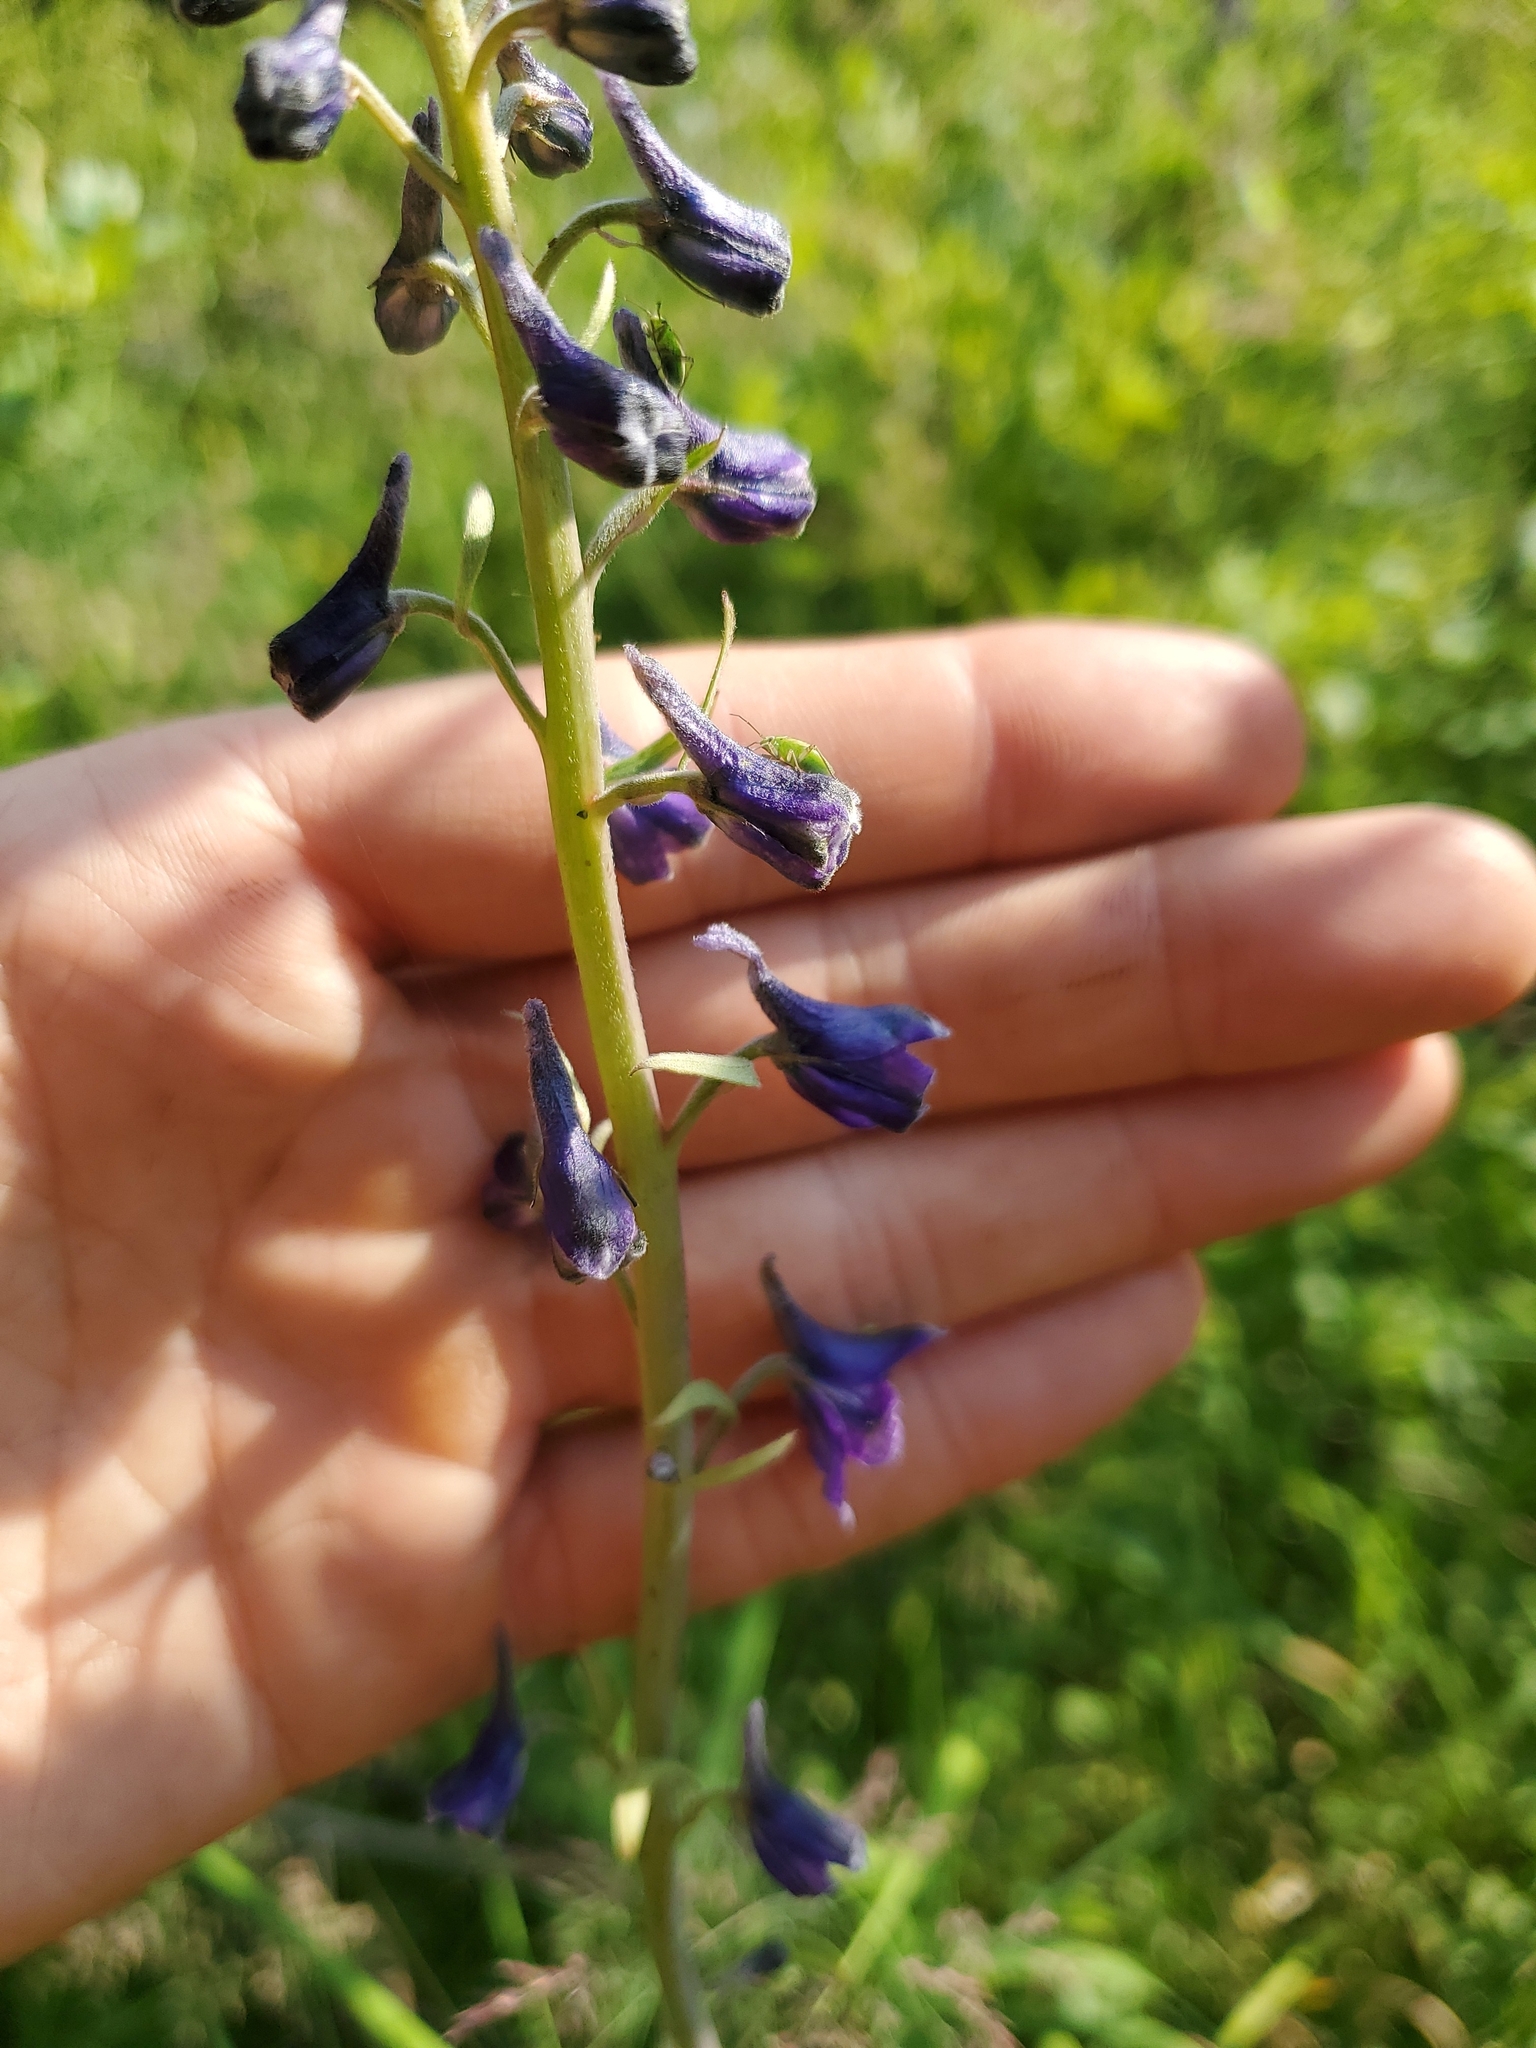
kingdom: Plantae
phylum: Tracheophyta
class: Magnoliopsida
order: Ranunculales
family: Ranunculaceae
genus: Delphinium
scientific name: Delphinium glaucum
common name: Brown's larkspur
